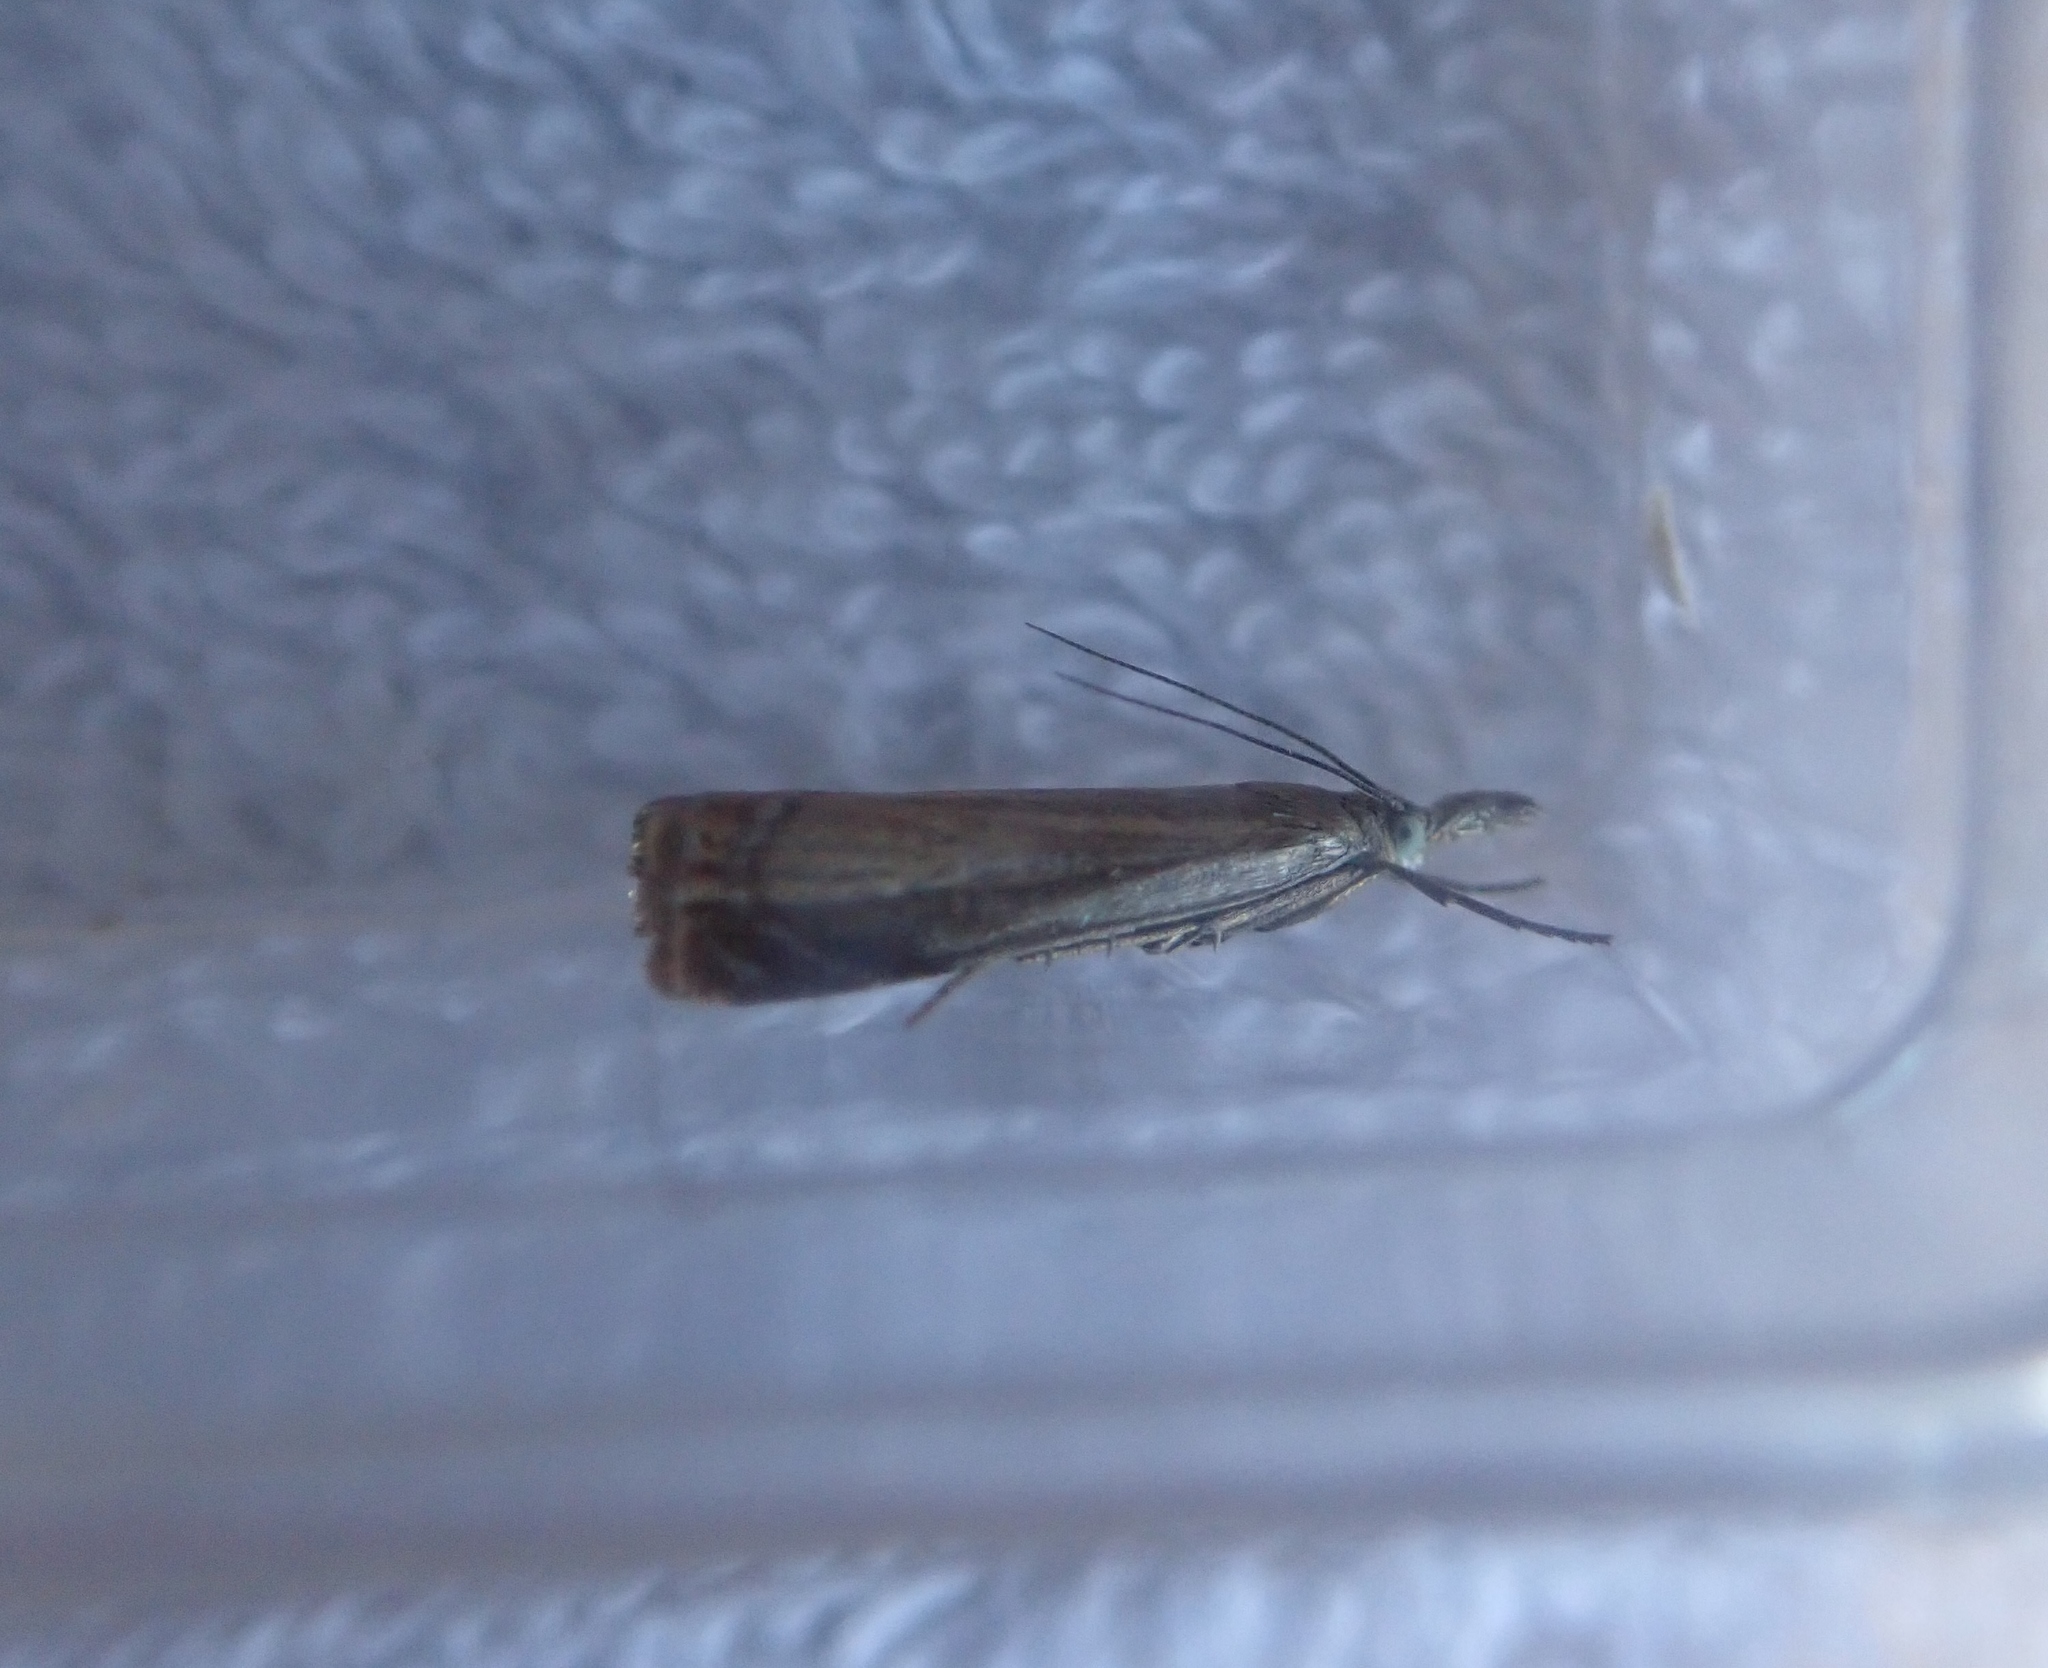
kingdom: Animalia
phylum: Arthropoda
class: Insecta
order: Lepidoptera
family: Crambidae
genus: Chrysoteuchia
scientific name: Chrysoteuchia culmella
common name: Garden grass-veneer
